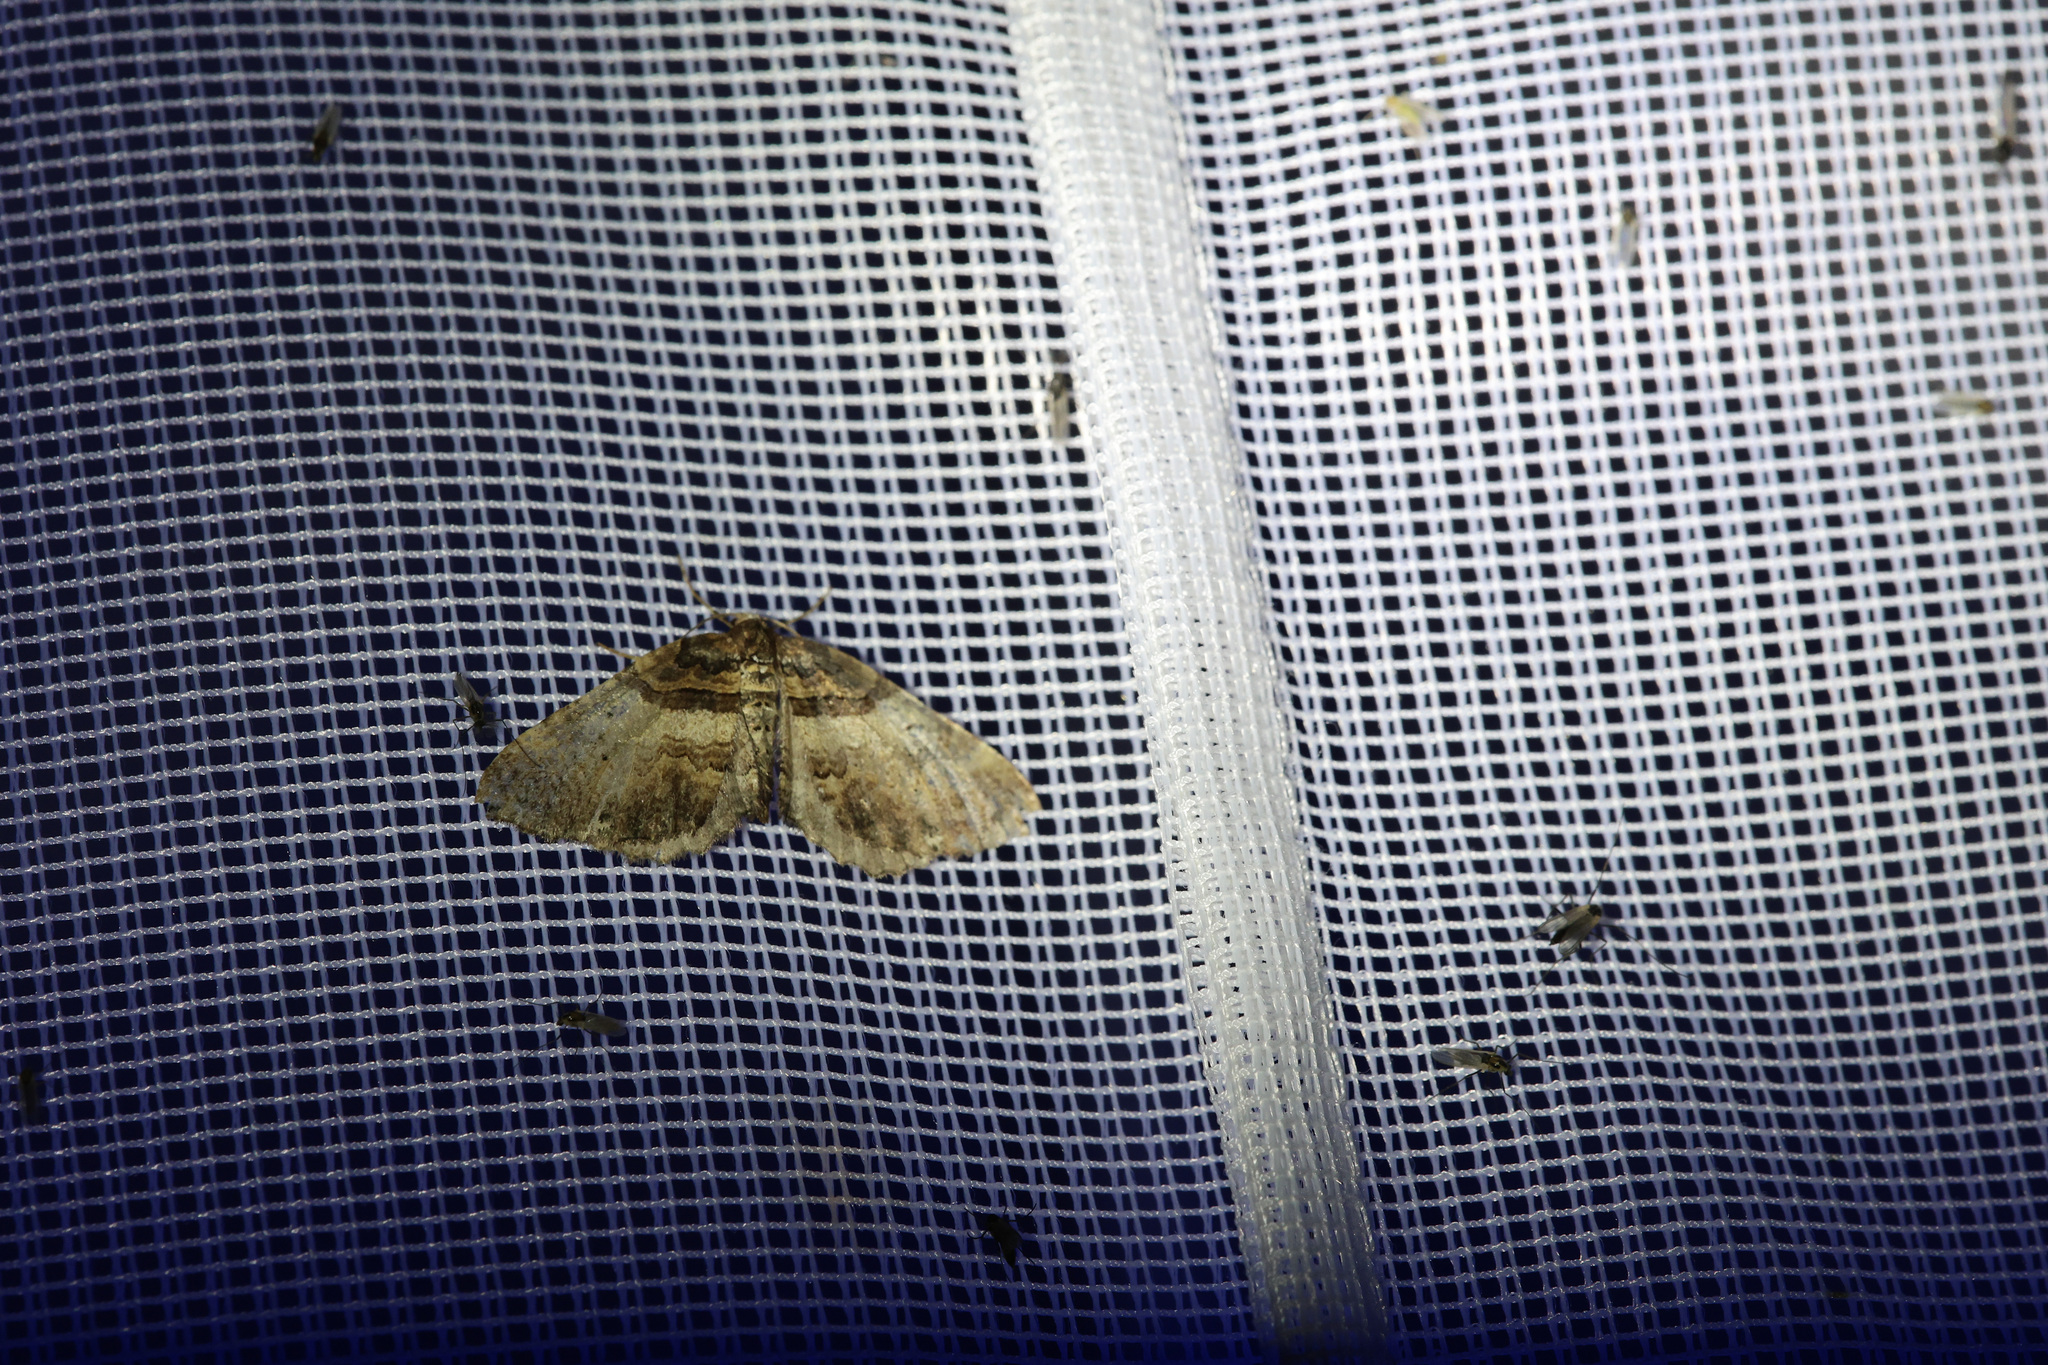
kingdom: Animalia
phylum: Arthropoda
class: Insecta
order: Lepidoptera
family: Geometridae
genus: Anticlea
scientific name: Anticlea badiata
